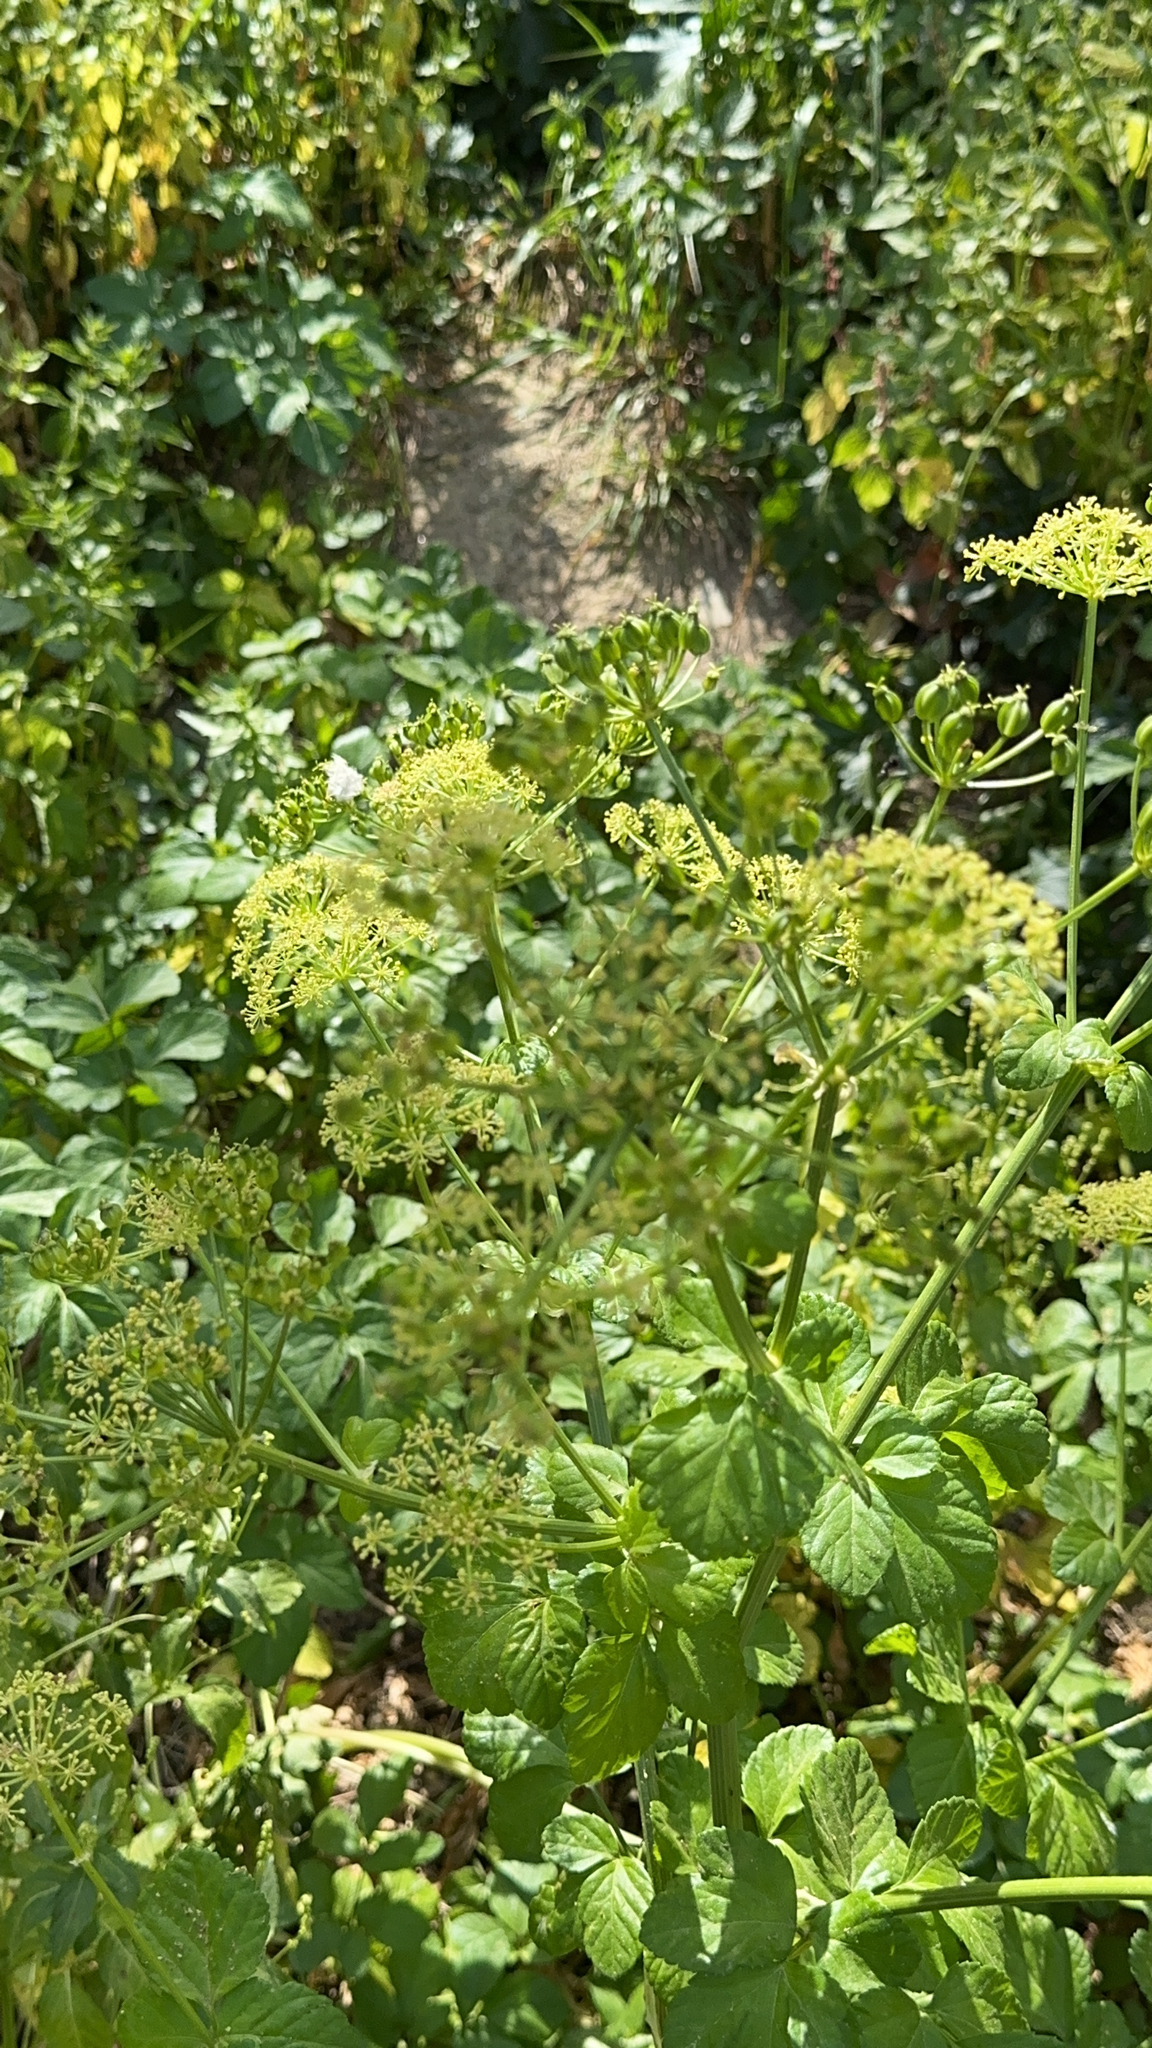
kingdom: Plantae
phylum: Tracheophyta
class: Magnoliopsida
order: Apiales
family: Apiaceae
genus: Smyrnium
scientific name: Smyrnium olusatrum
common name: Alexanders
